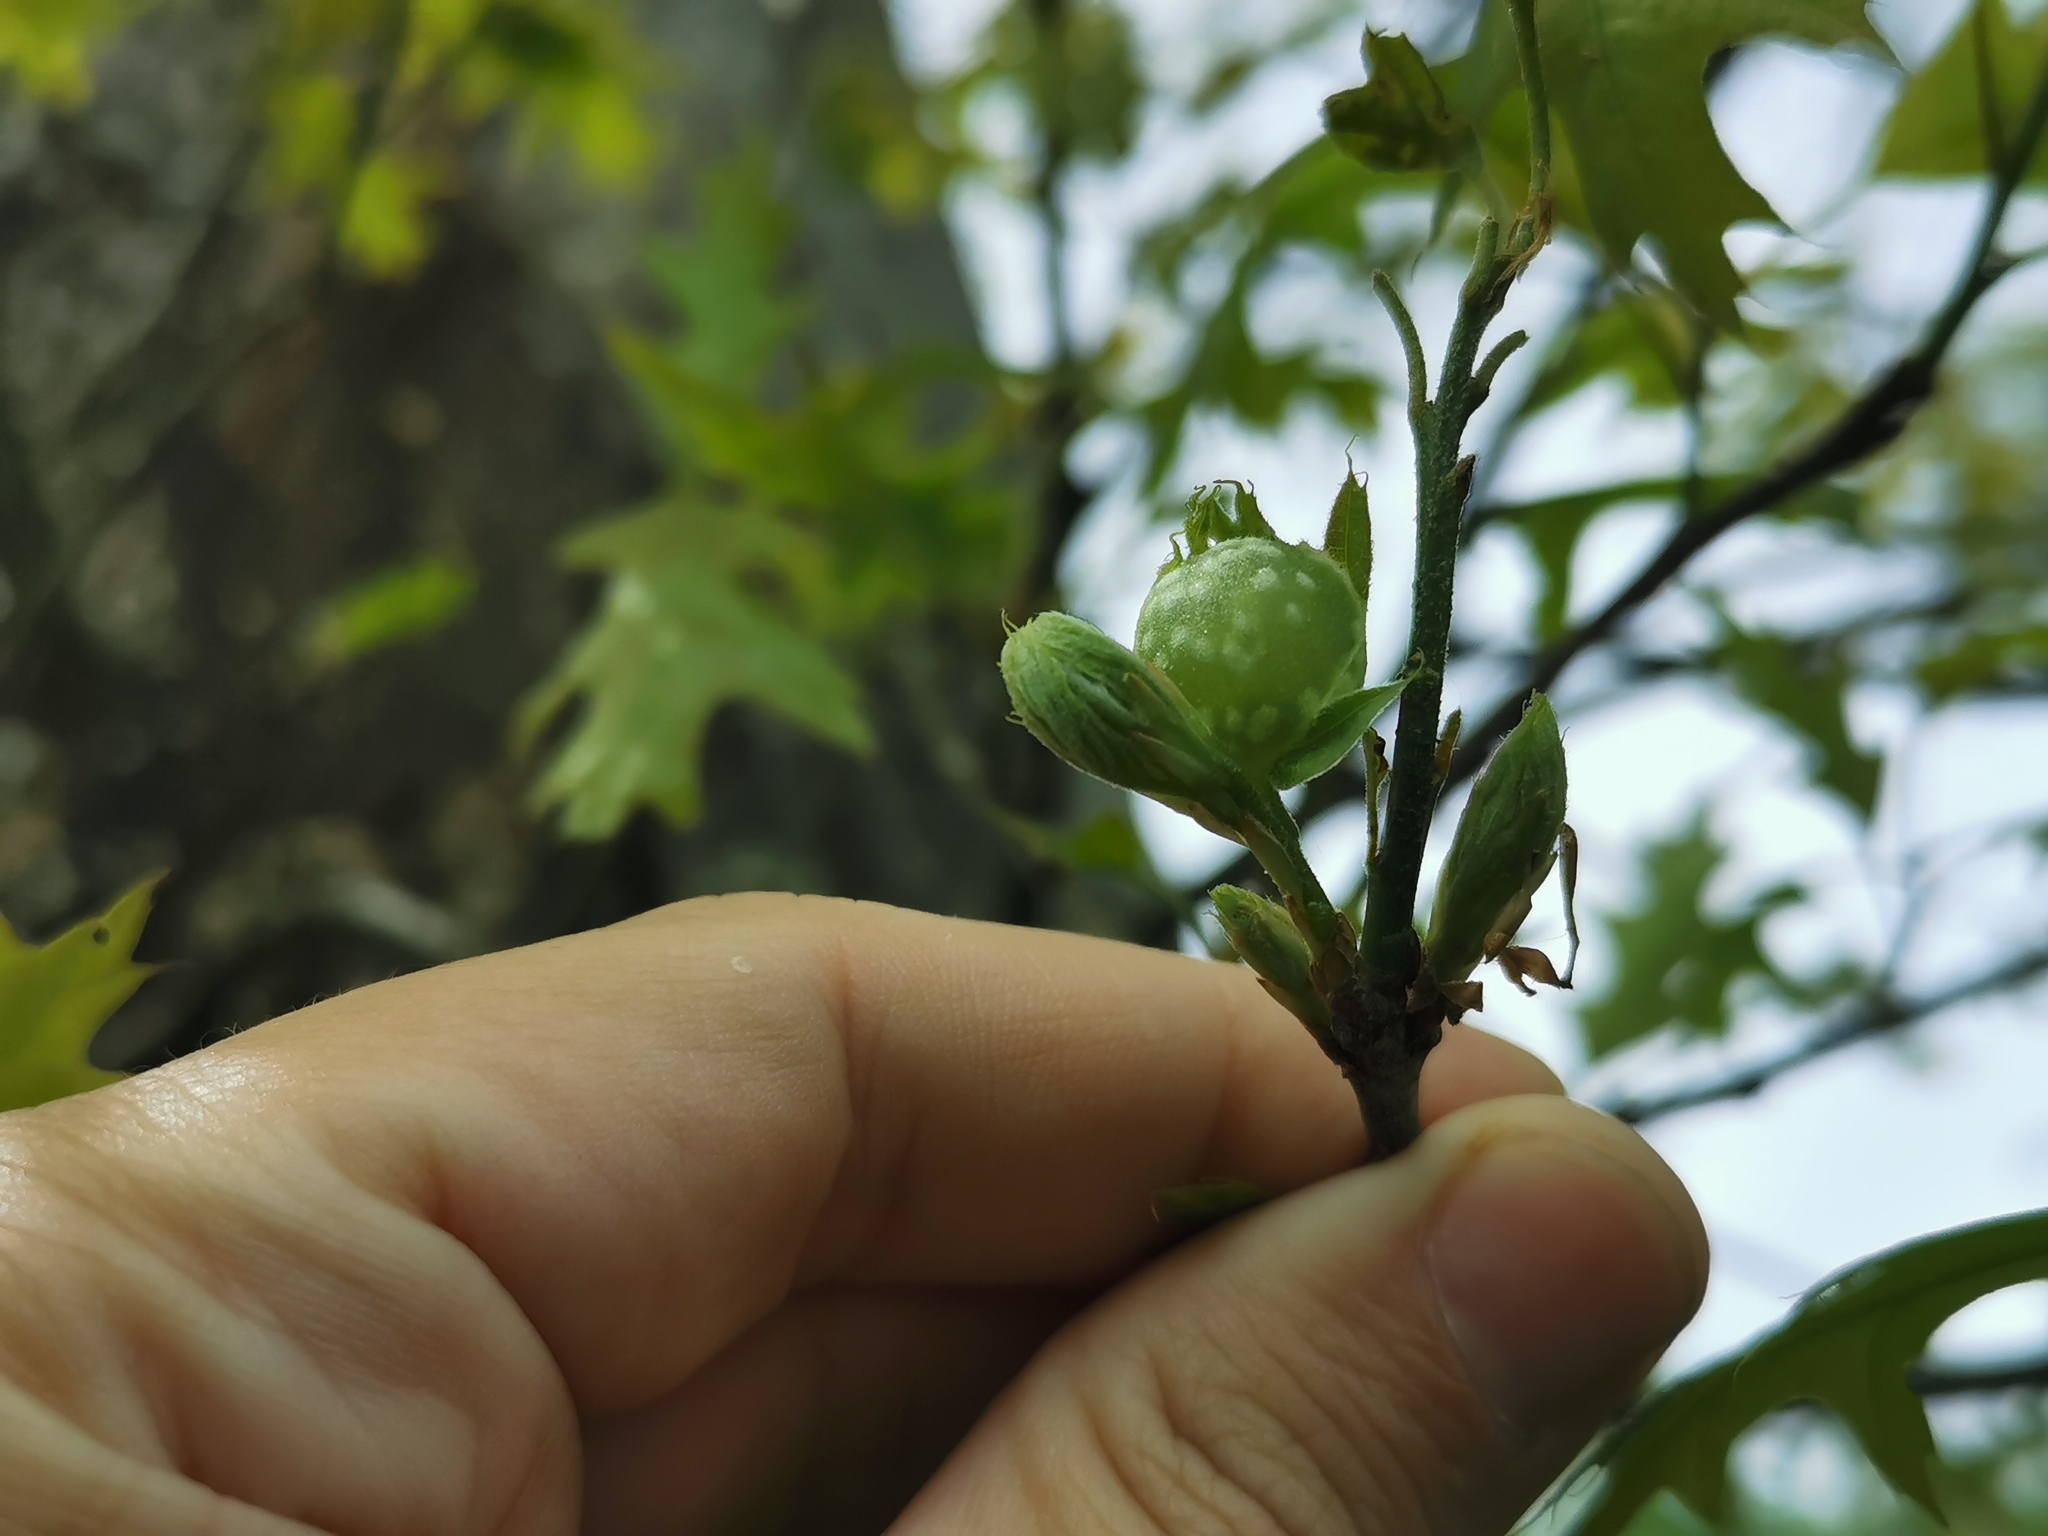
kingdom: Animalia
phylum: Arthropoda
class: Insecta
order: Hymenoptera
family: Cynipidae
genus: Dryocosmus
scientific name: Dryocosmus quercuspalustris
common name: Succulent oak gall wasp
